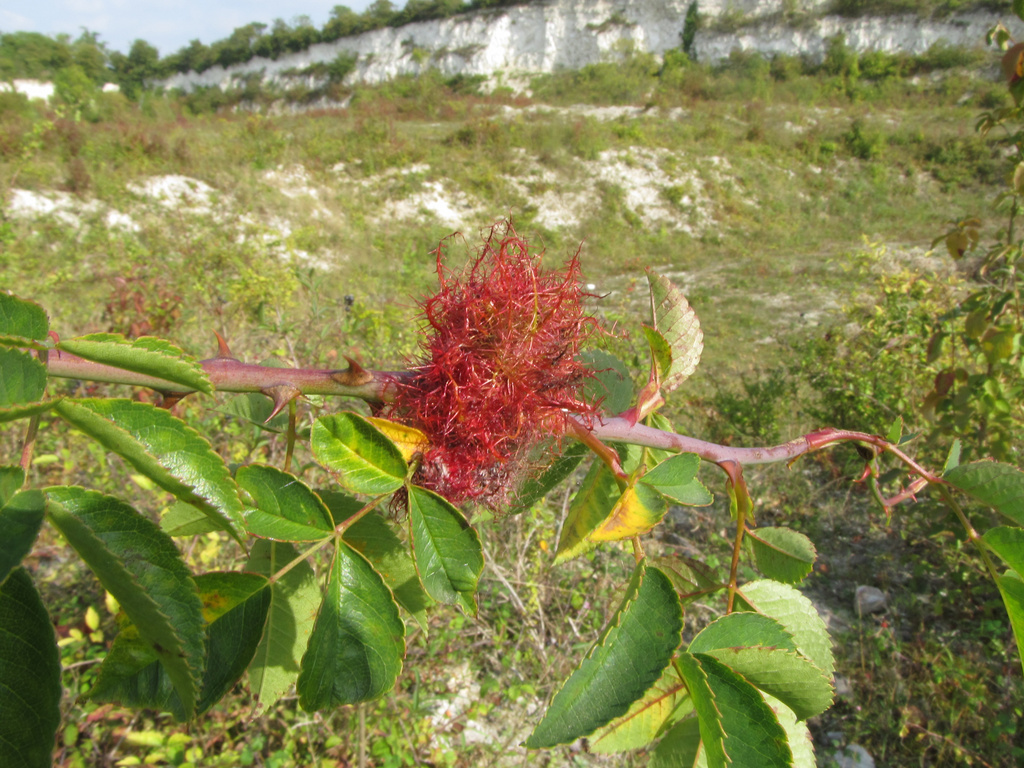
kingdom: Animalia
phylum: Arthropoda
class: Insecta
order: Hymenoptera
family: Cynipidae
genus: Diplolepis
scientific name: Diplolepis rosae
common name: Bedeguar gall
